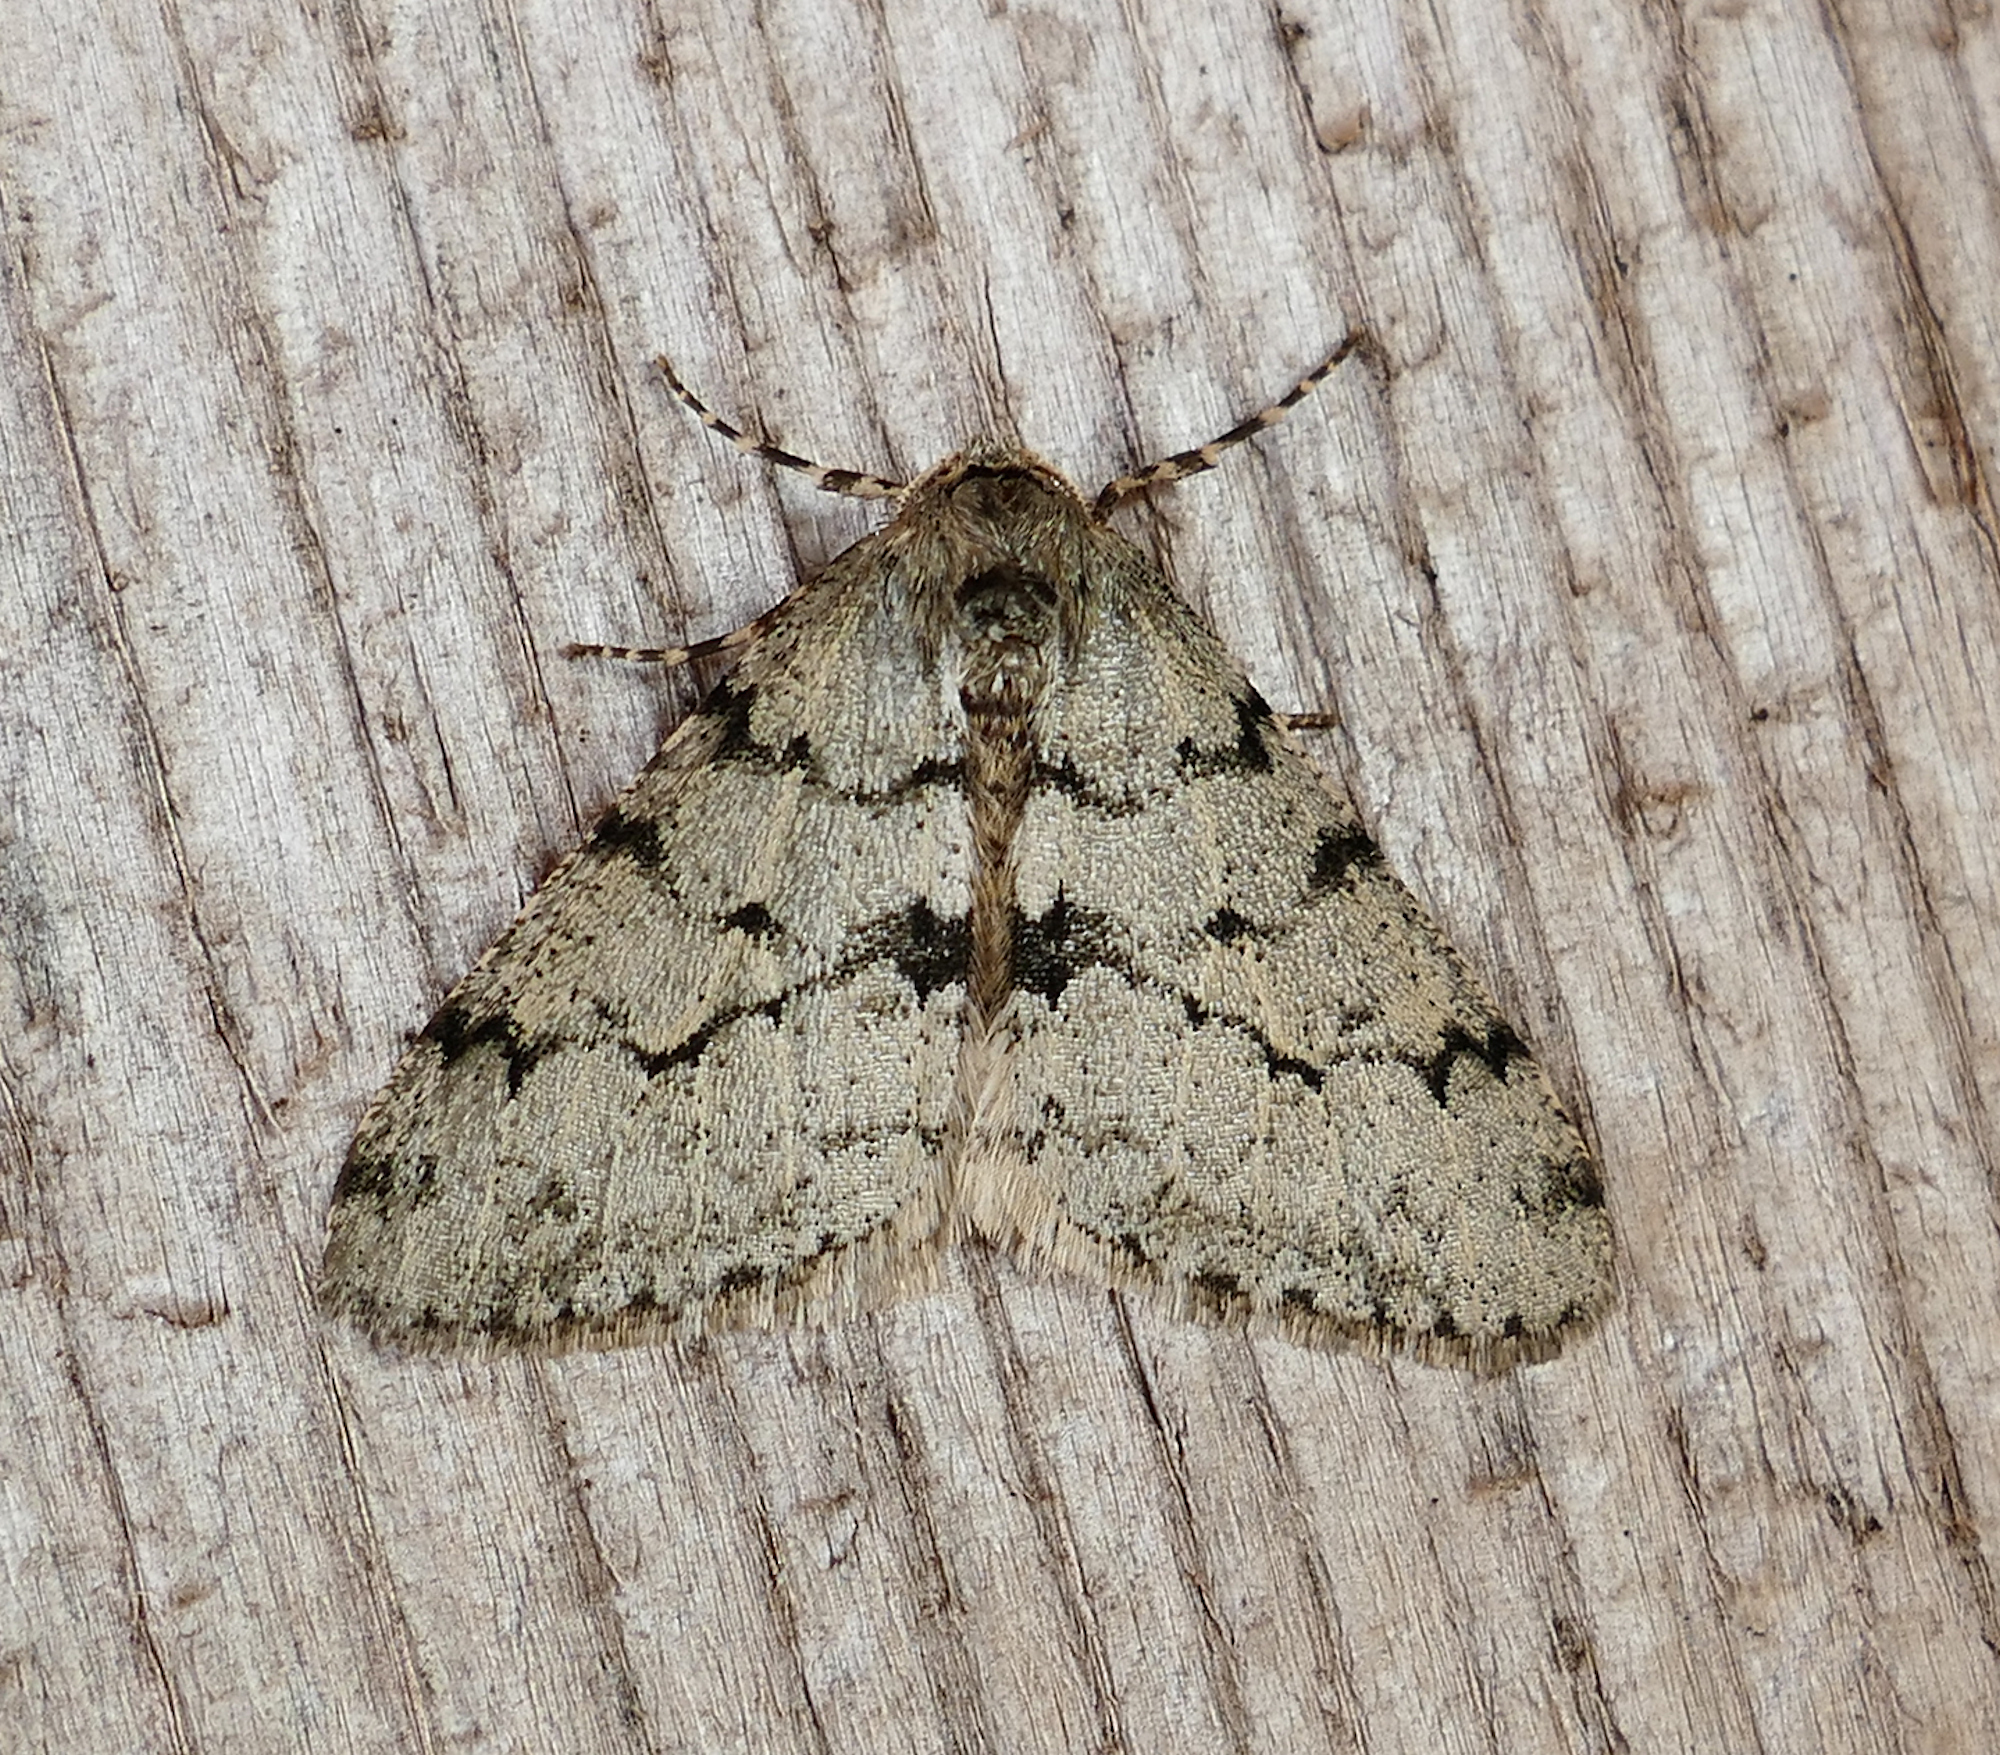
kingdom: Animalia
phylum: Arthropoda
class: Insecta
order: Lepidoptera
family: Geometridae
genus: Phigalia
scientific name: Phigalia strigataria
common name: Small phigalia
